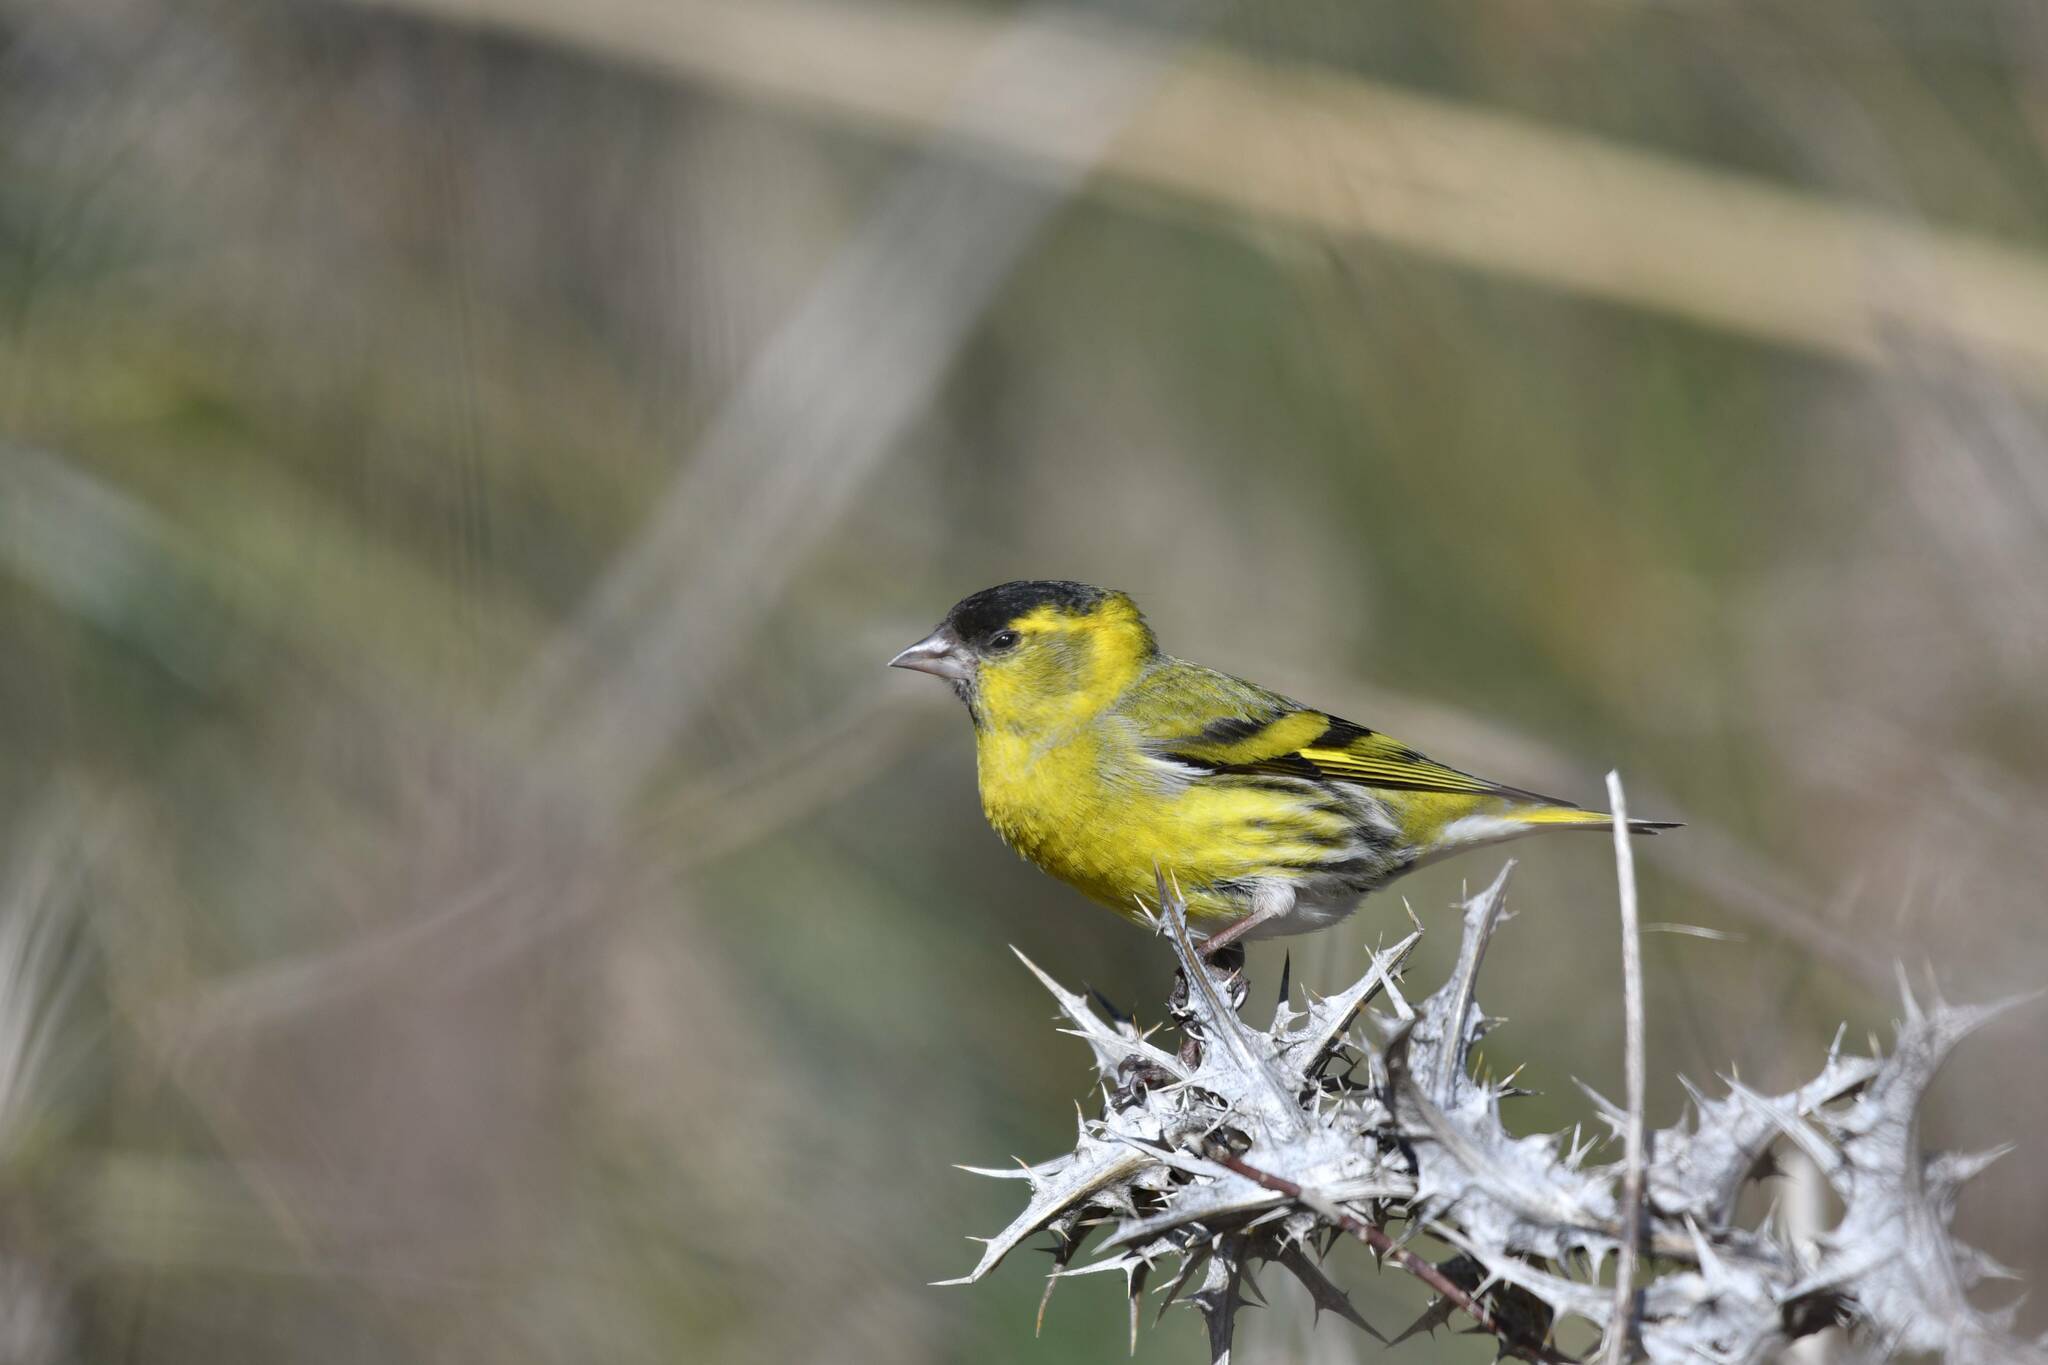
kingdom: Animalia
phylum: Chordata
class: Aves
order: Passeriformes
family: Fringillidae
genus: Spinus
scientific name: Spinus spinus
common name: Eurasian siskin
